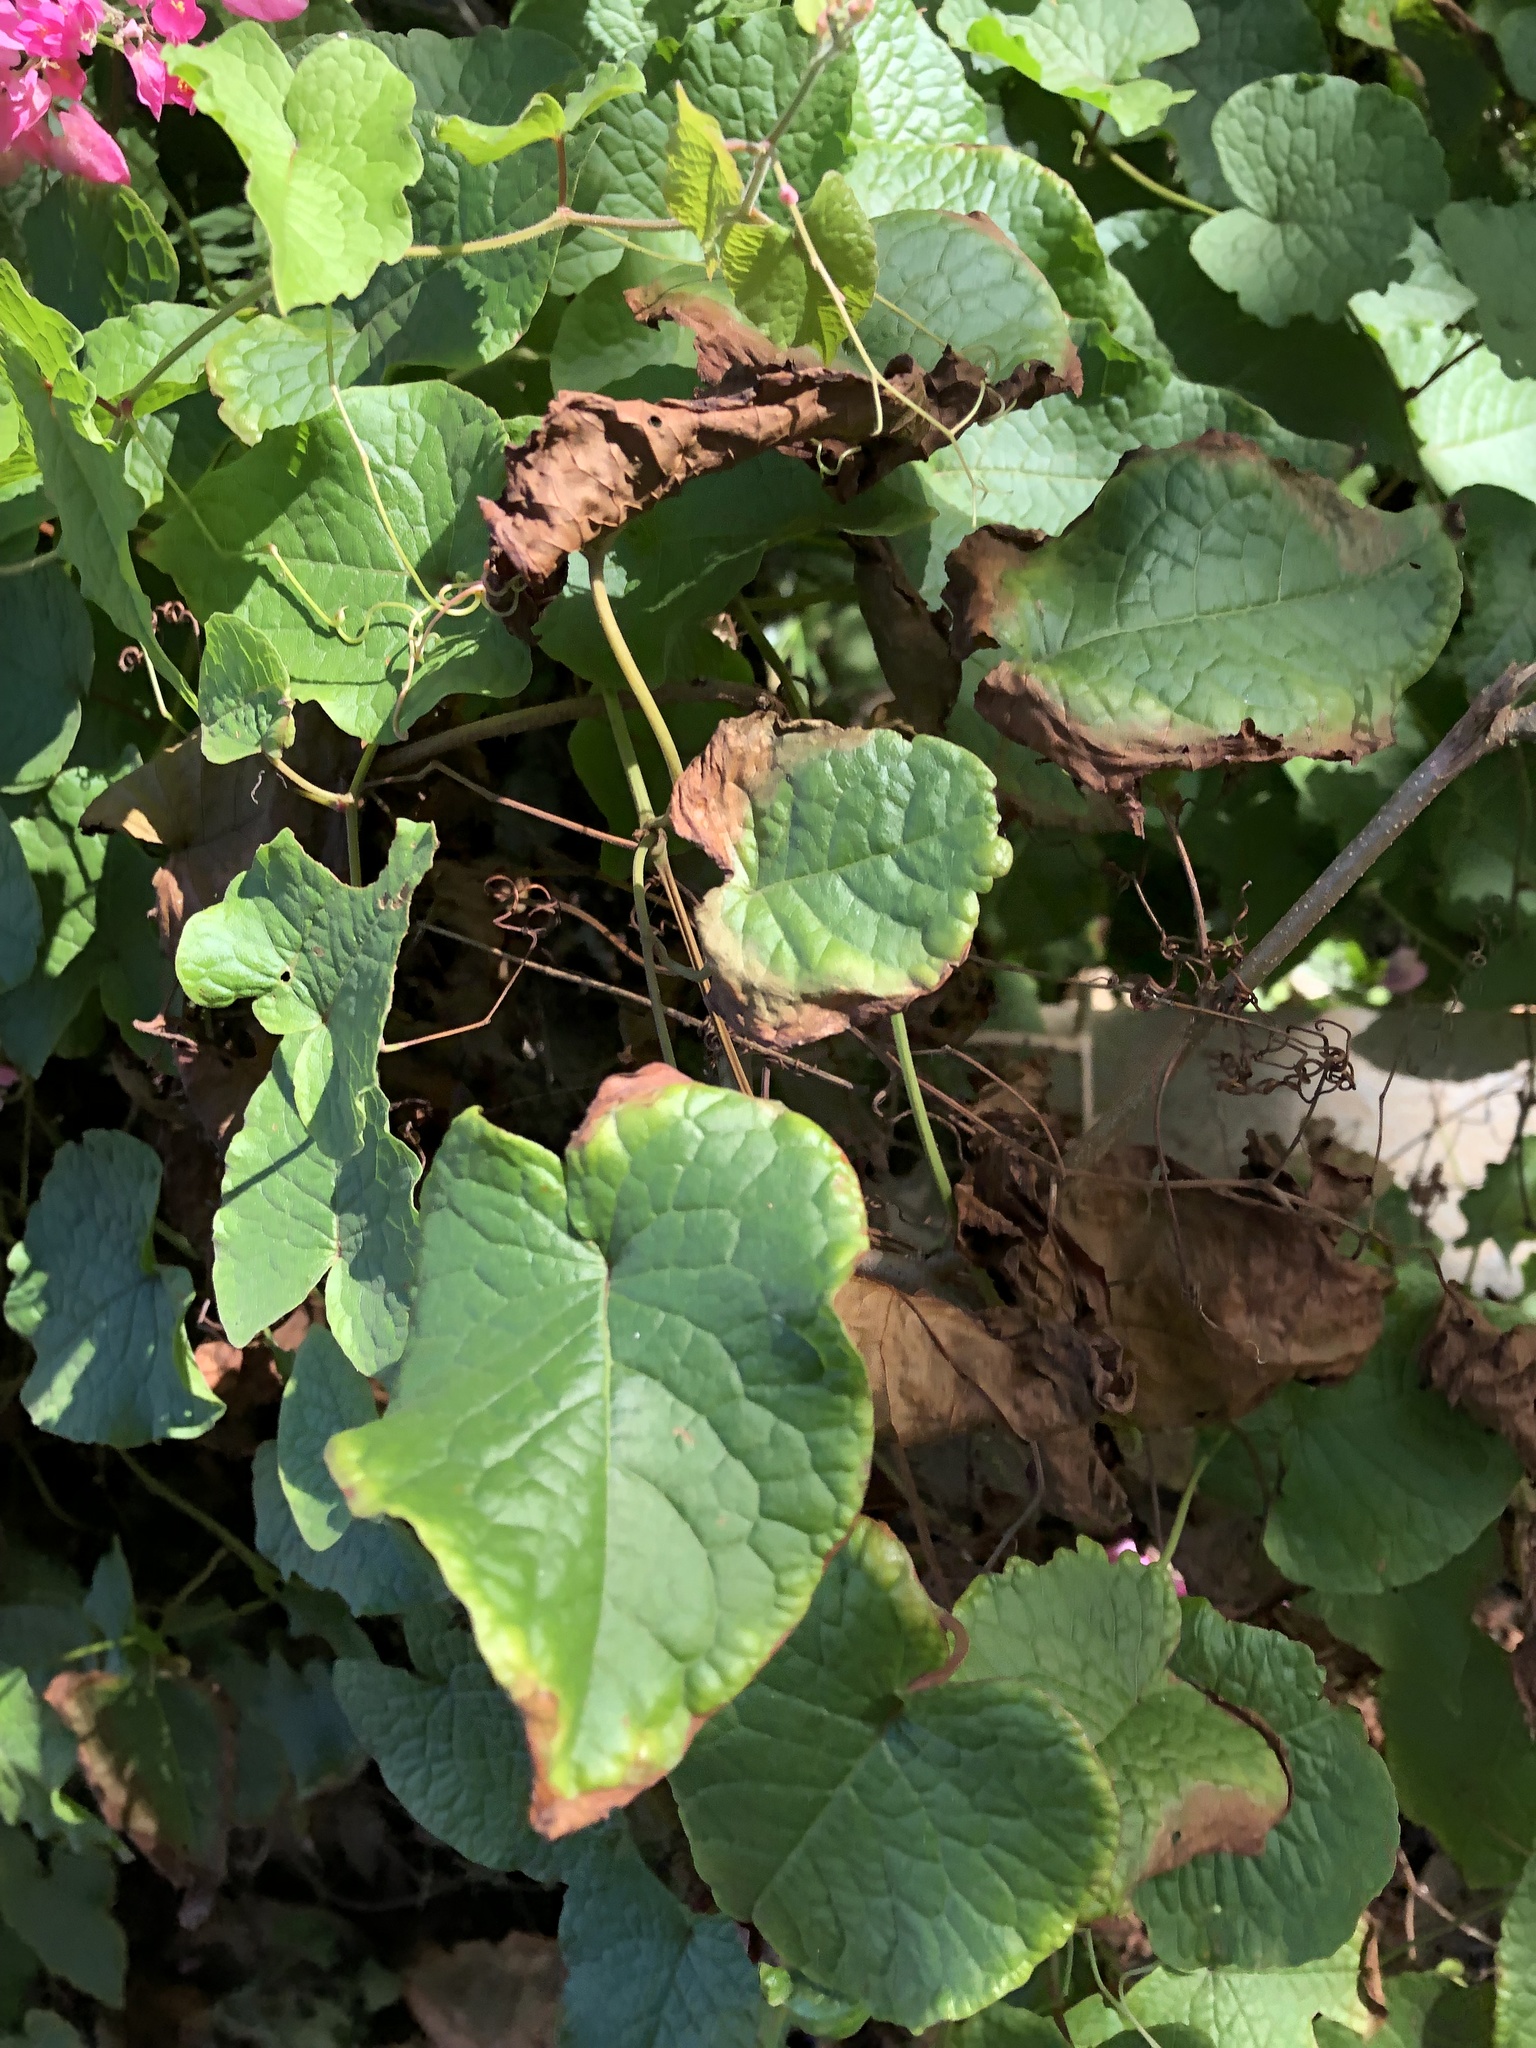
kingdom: Plantae
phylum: Tracheophyta
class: Magnoliopsida
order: Caryophyllales
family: Polygonaceae
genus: Antigonon
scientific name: Antigonon leptopus
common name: Coral vine
